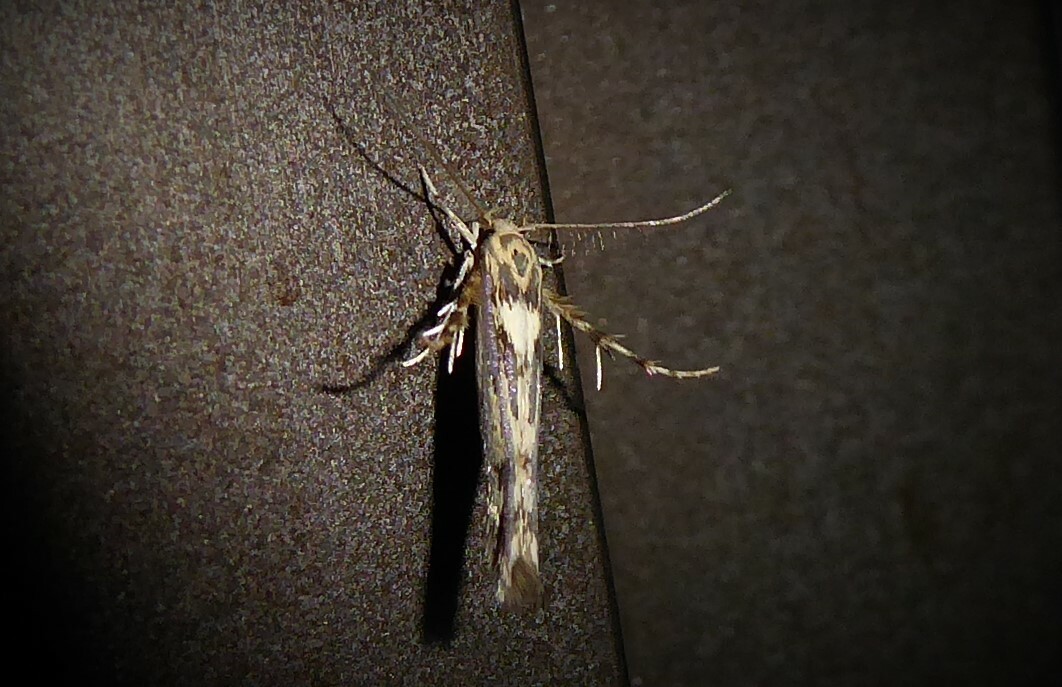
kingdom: Animalia
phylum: Arthropoda
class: Insecta
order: Lepidoptera
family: Stathmopodidae
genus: Stathmopoda
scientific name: Stathmopoda plumbiflua
